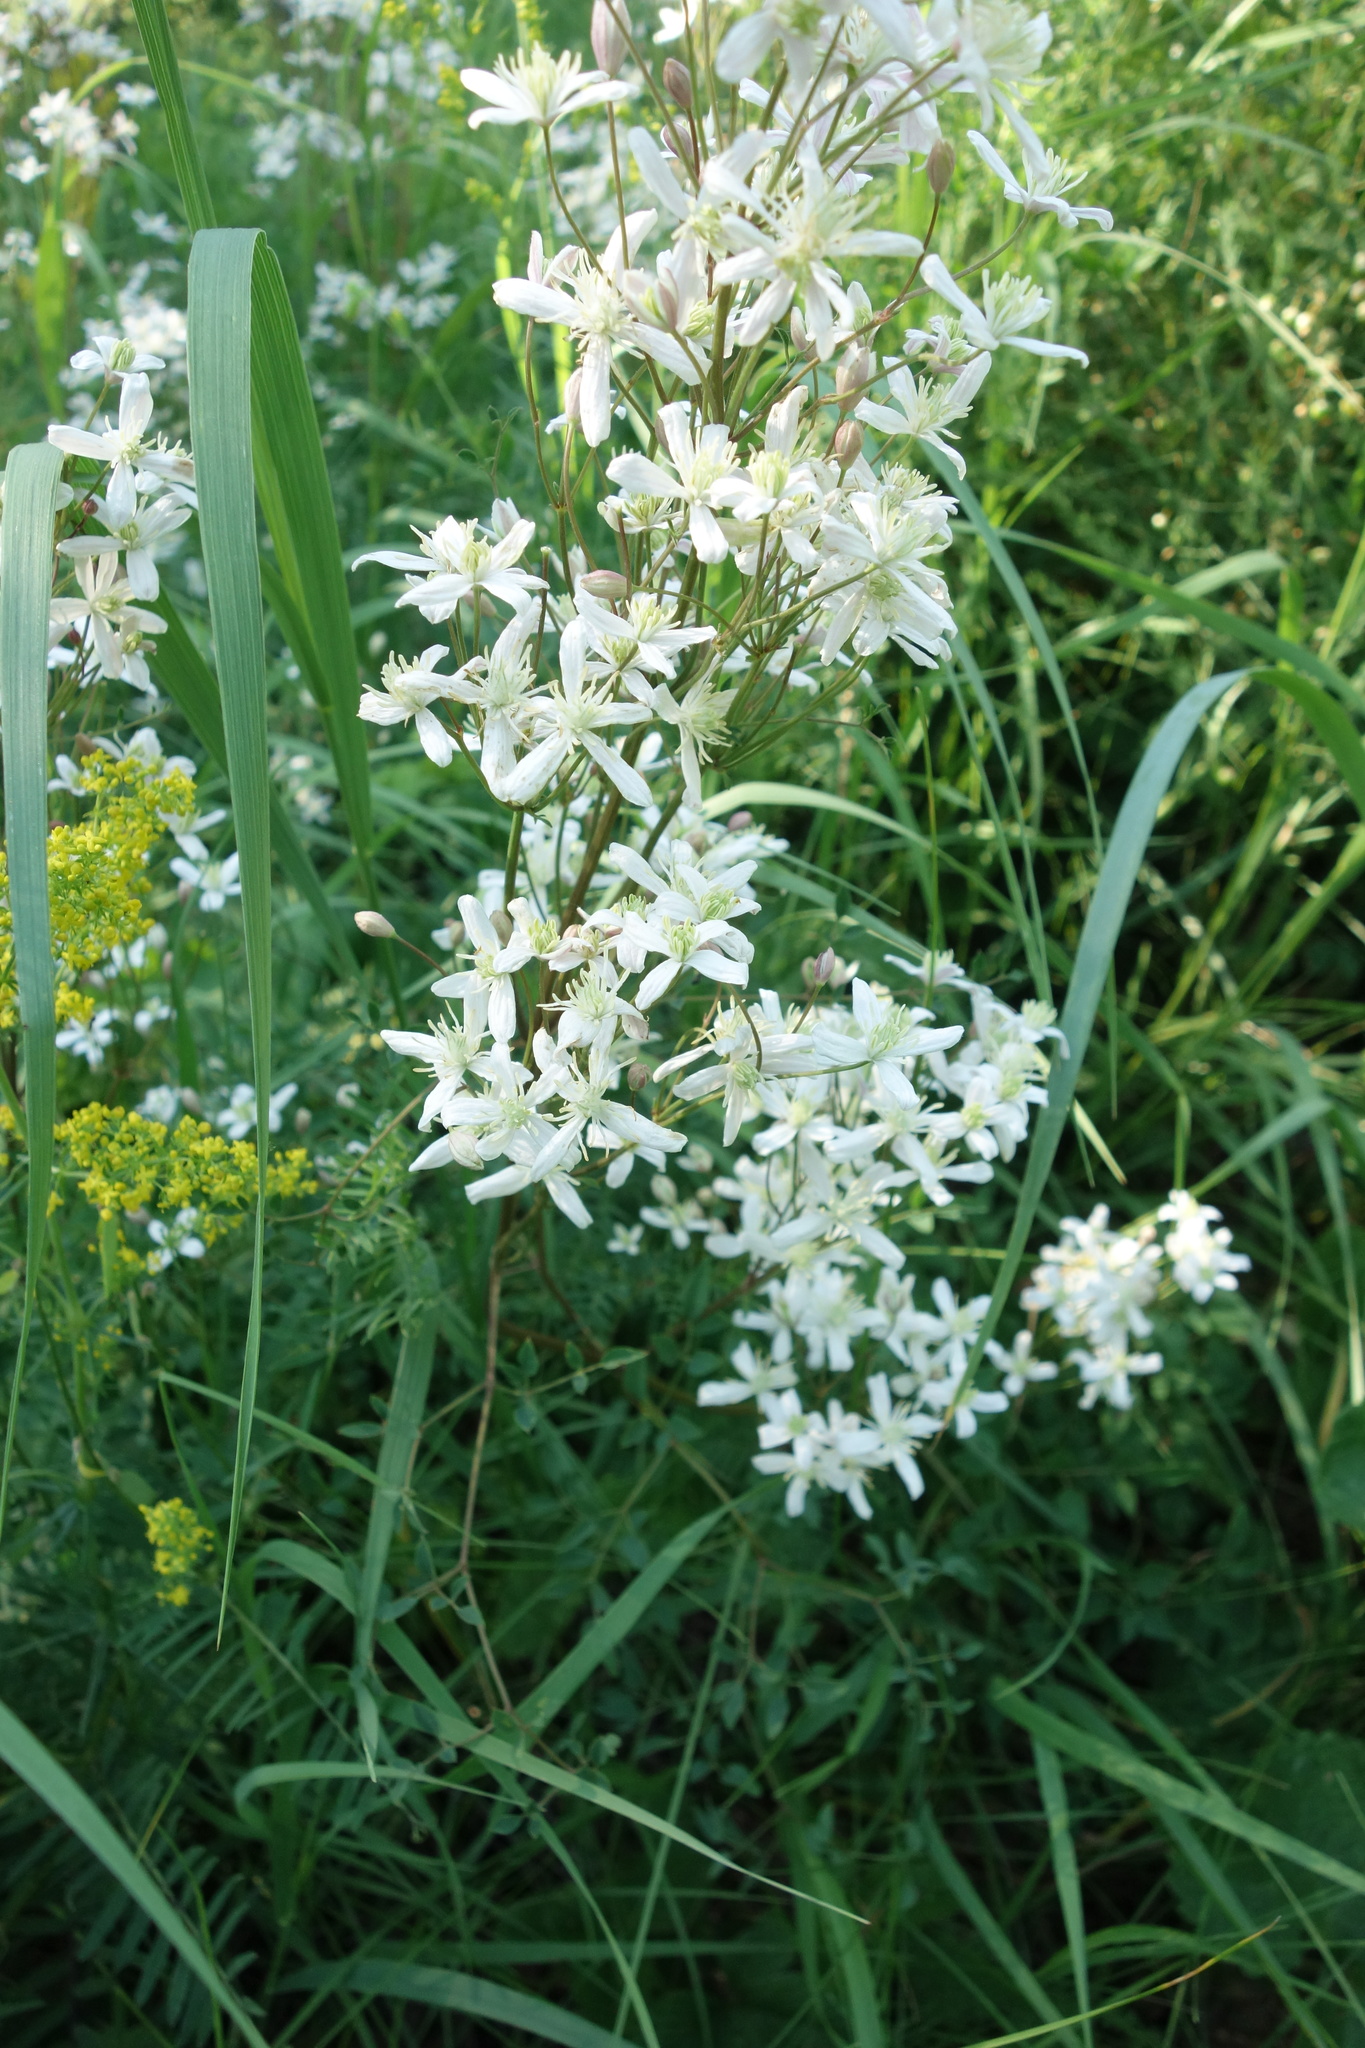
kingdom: Plantae
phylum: Tracheophyta
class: Magnoliopsida
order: Ranunculales
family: Ranunculaceae
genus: Clematis
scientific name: Clematis lathyrifolia
